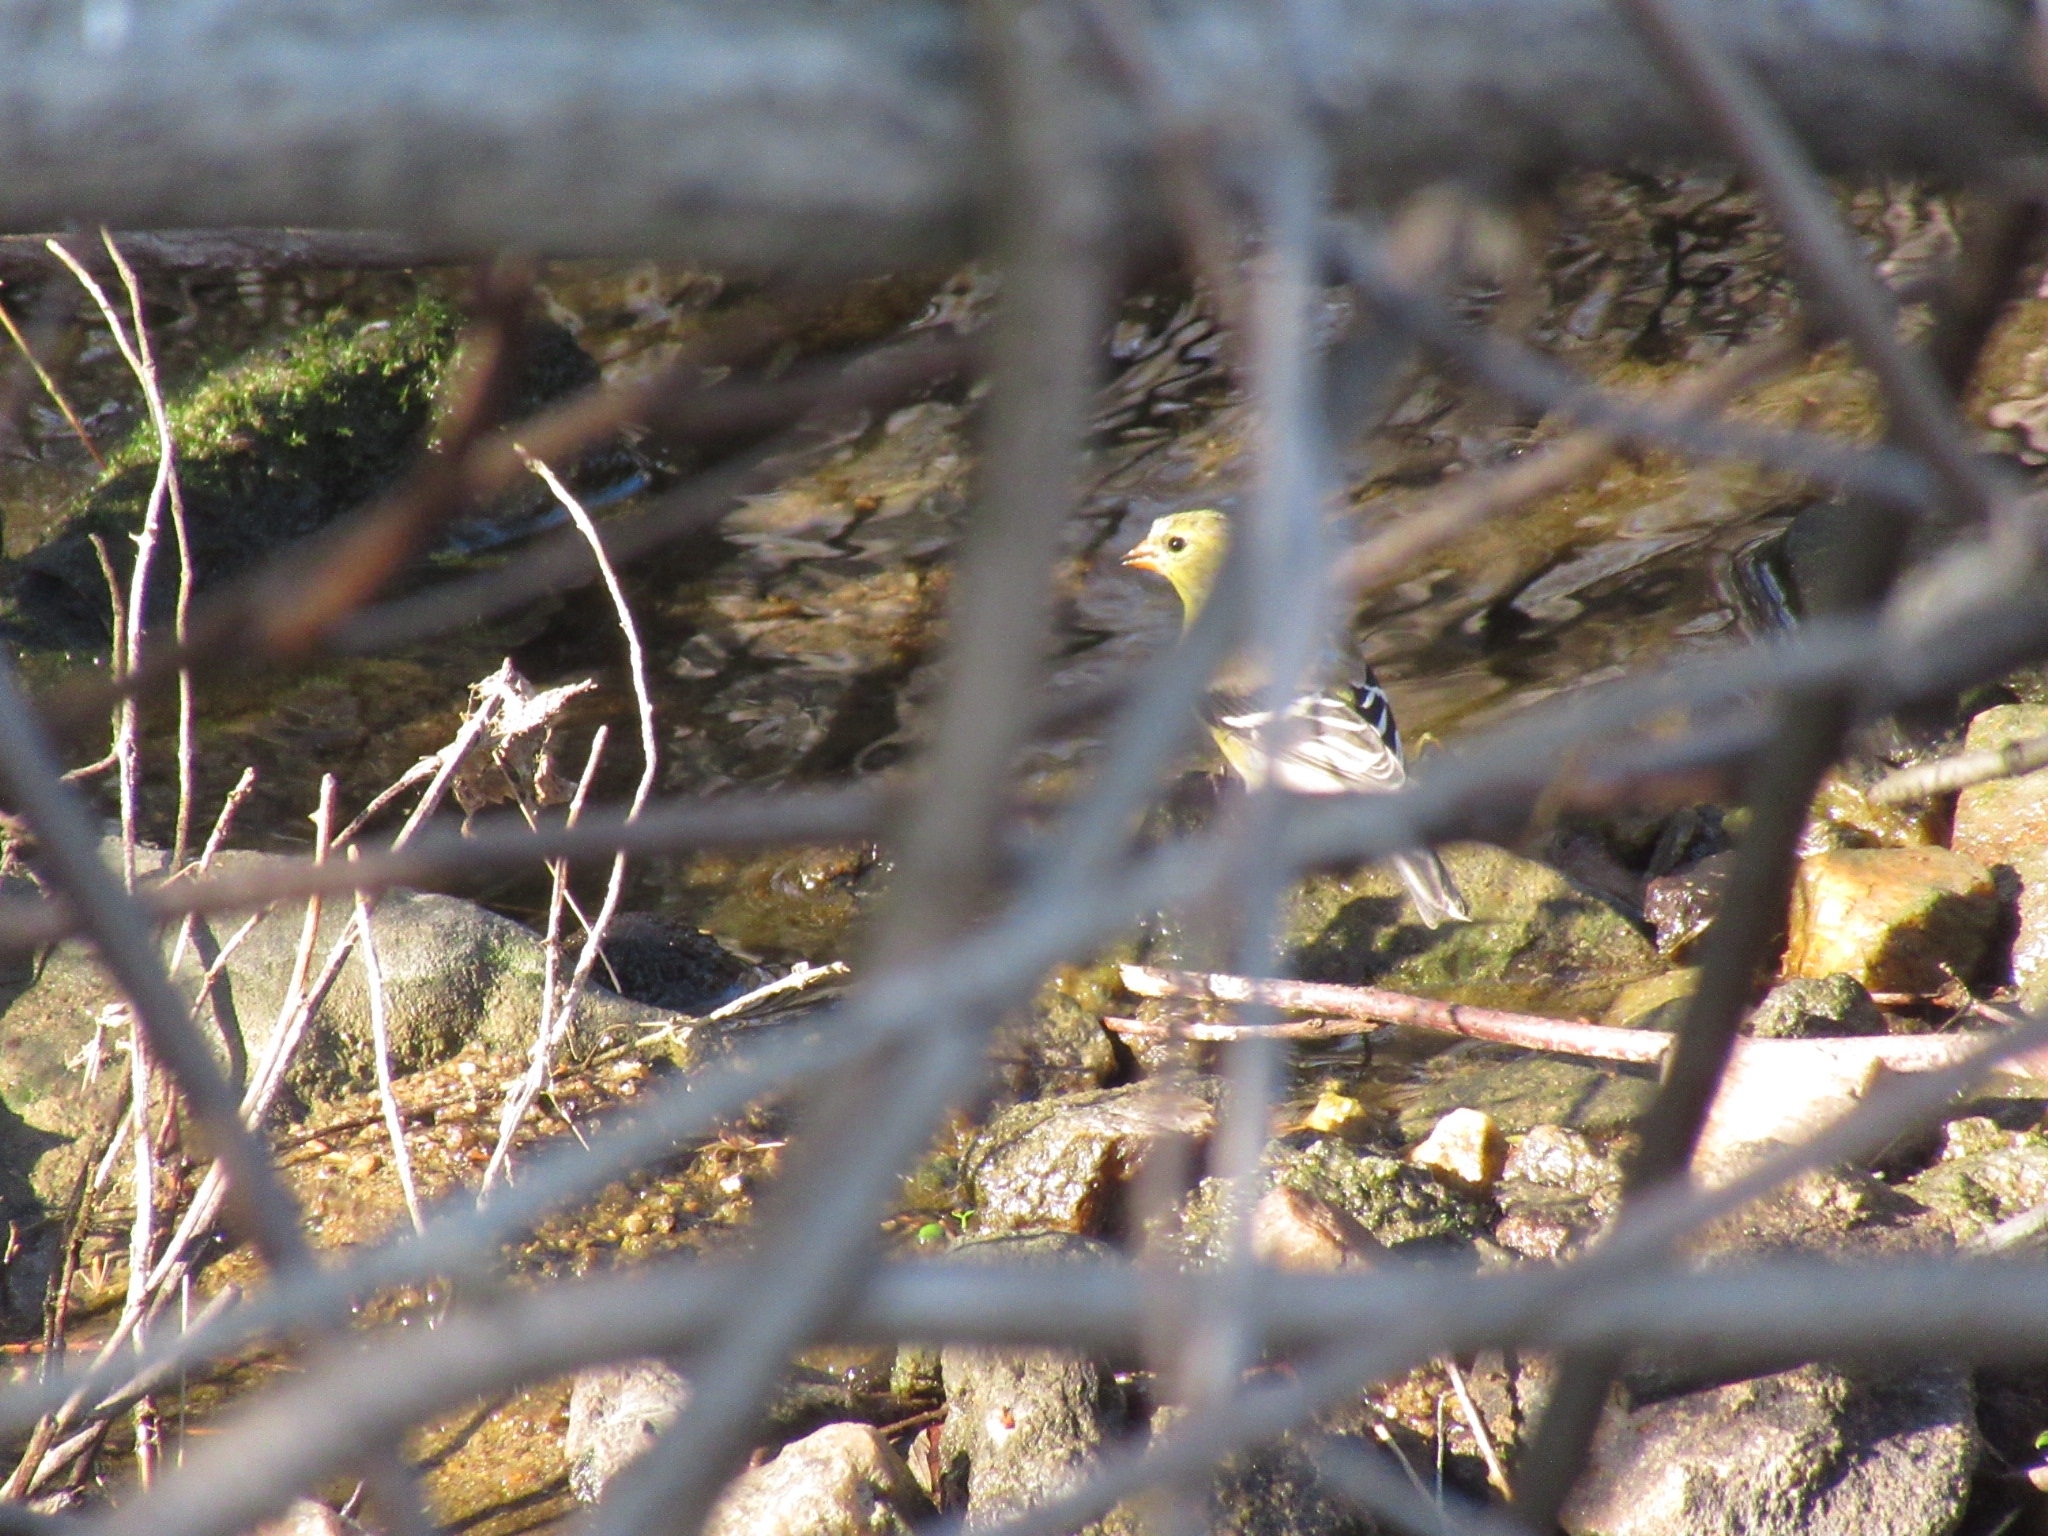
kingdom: Animalia
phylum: Chordata
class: Aves
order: Passeriformes
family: Fringillidae
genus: Spinus
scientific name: Spinus tristis
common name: American goldfinch
